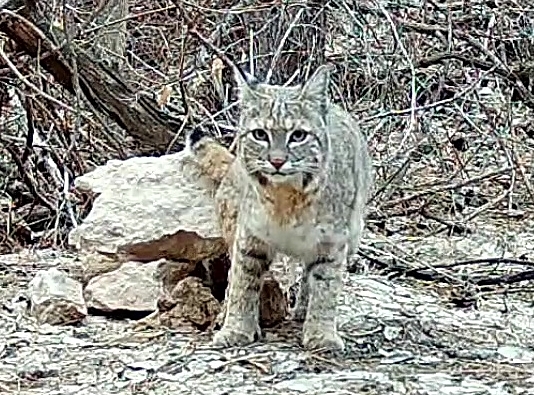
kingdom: Animalia
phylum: Chordata
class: Mammalia
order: Carnivora
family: Felidae
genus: Lynx
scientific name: Lynx rufus
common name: Bobcat
